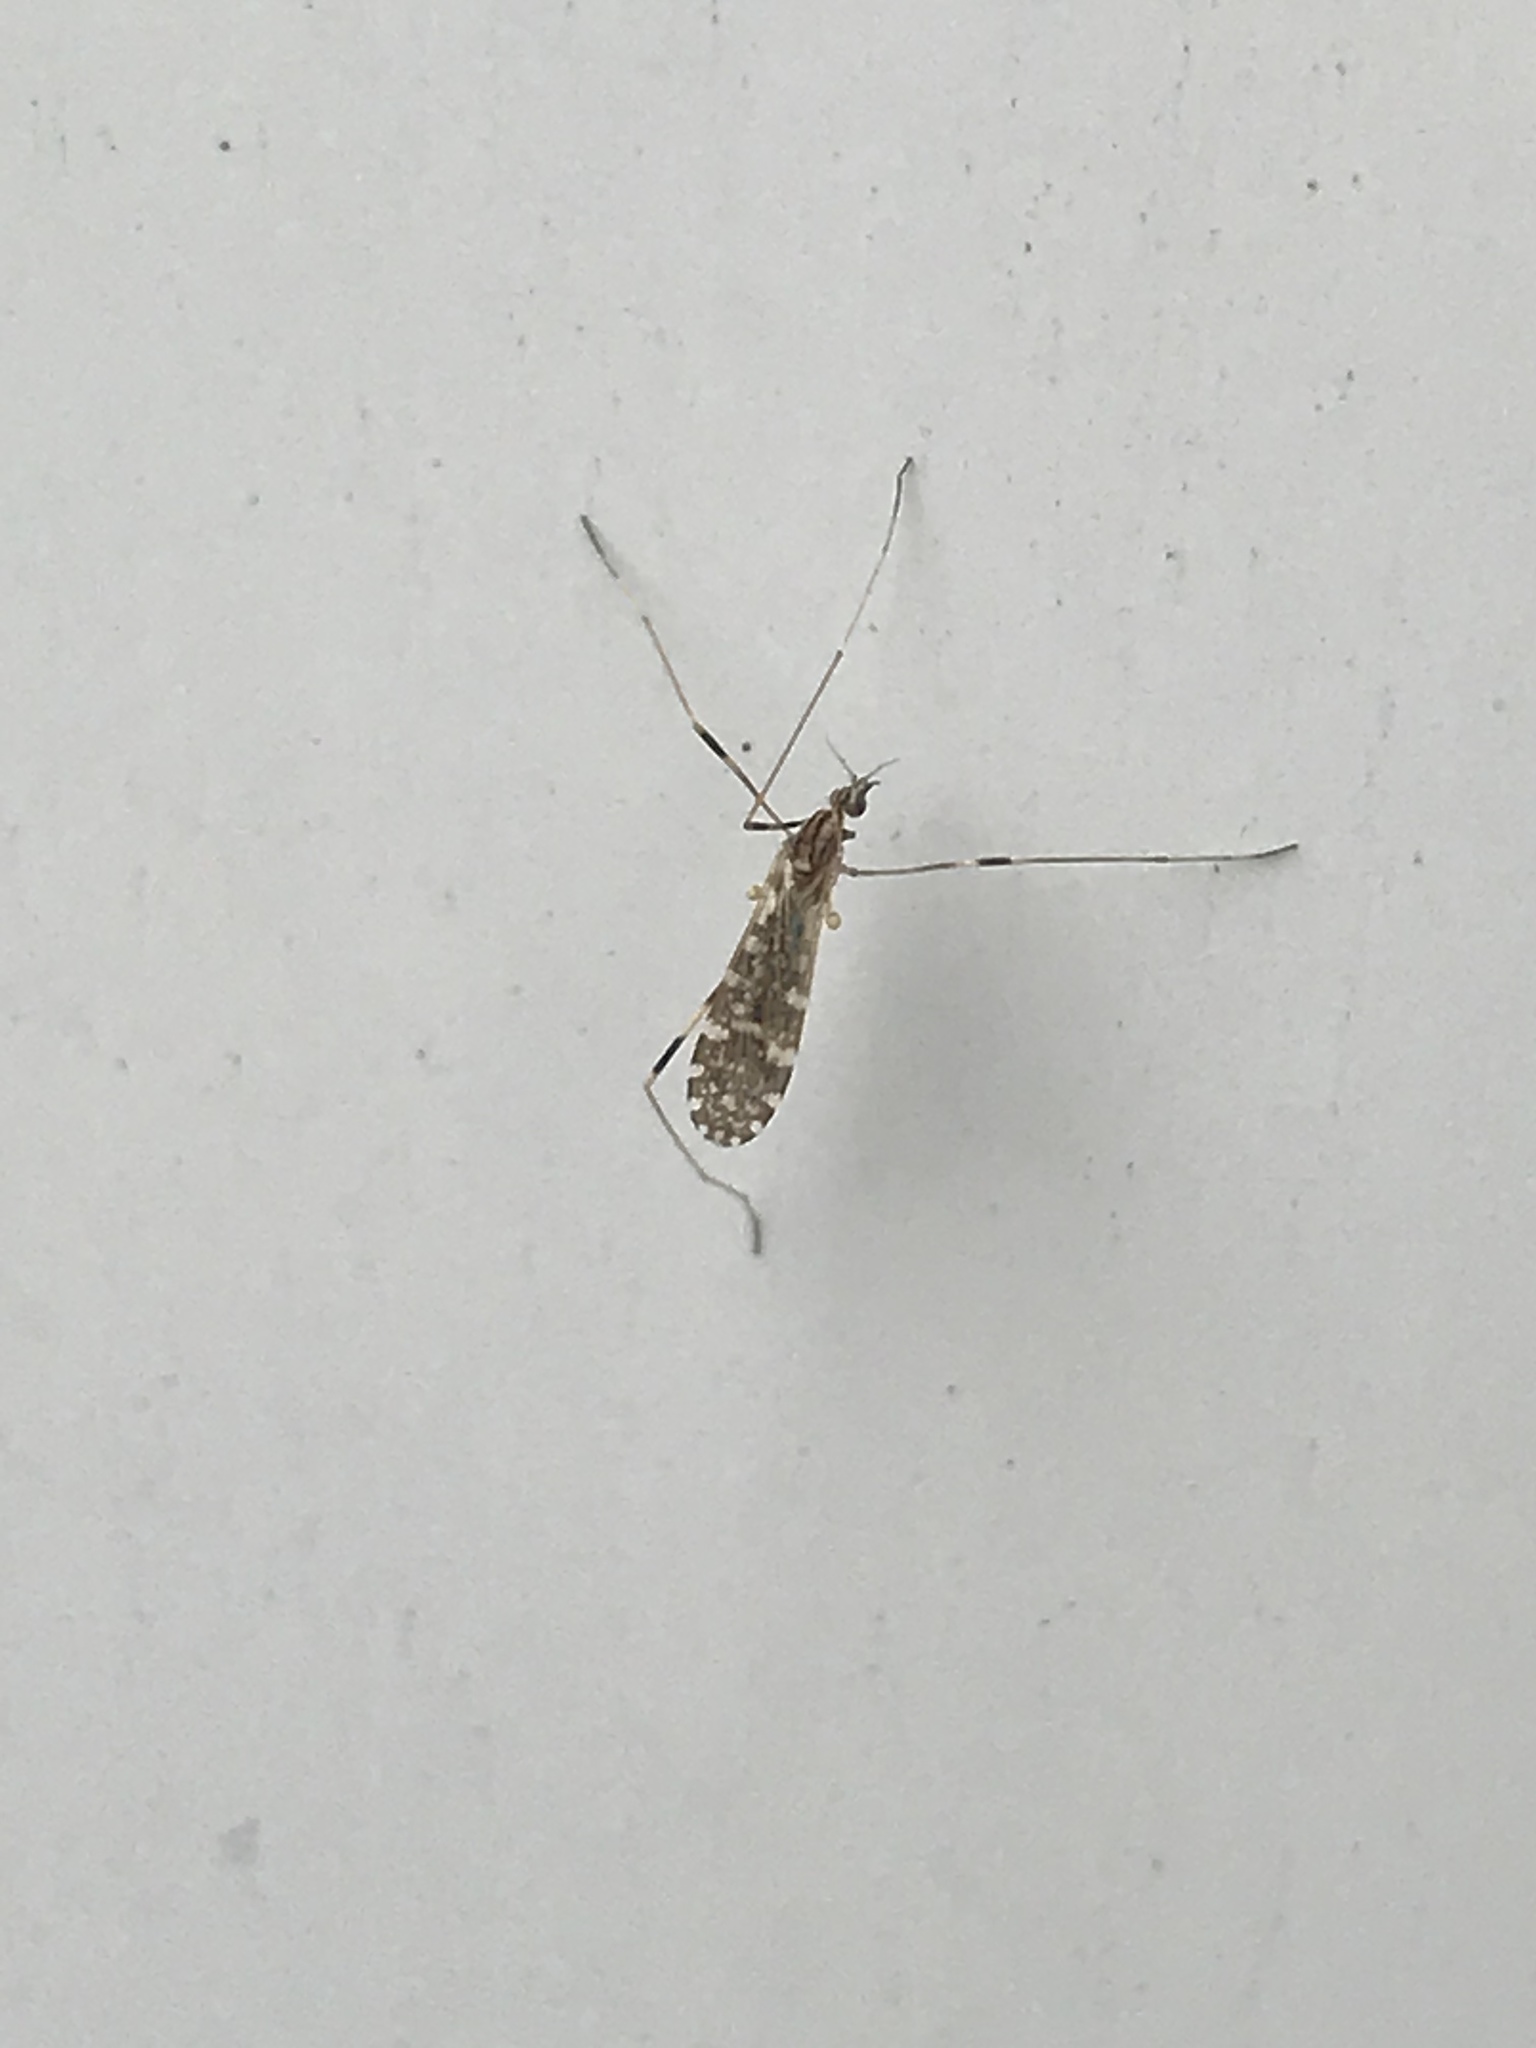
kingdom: Animalia
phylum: Arthropoda
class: Insecta
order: Diptera
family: Limoniidae
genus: Erioptera
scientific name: Erioptera caliptera
